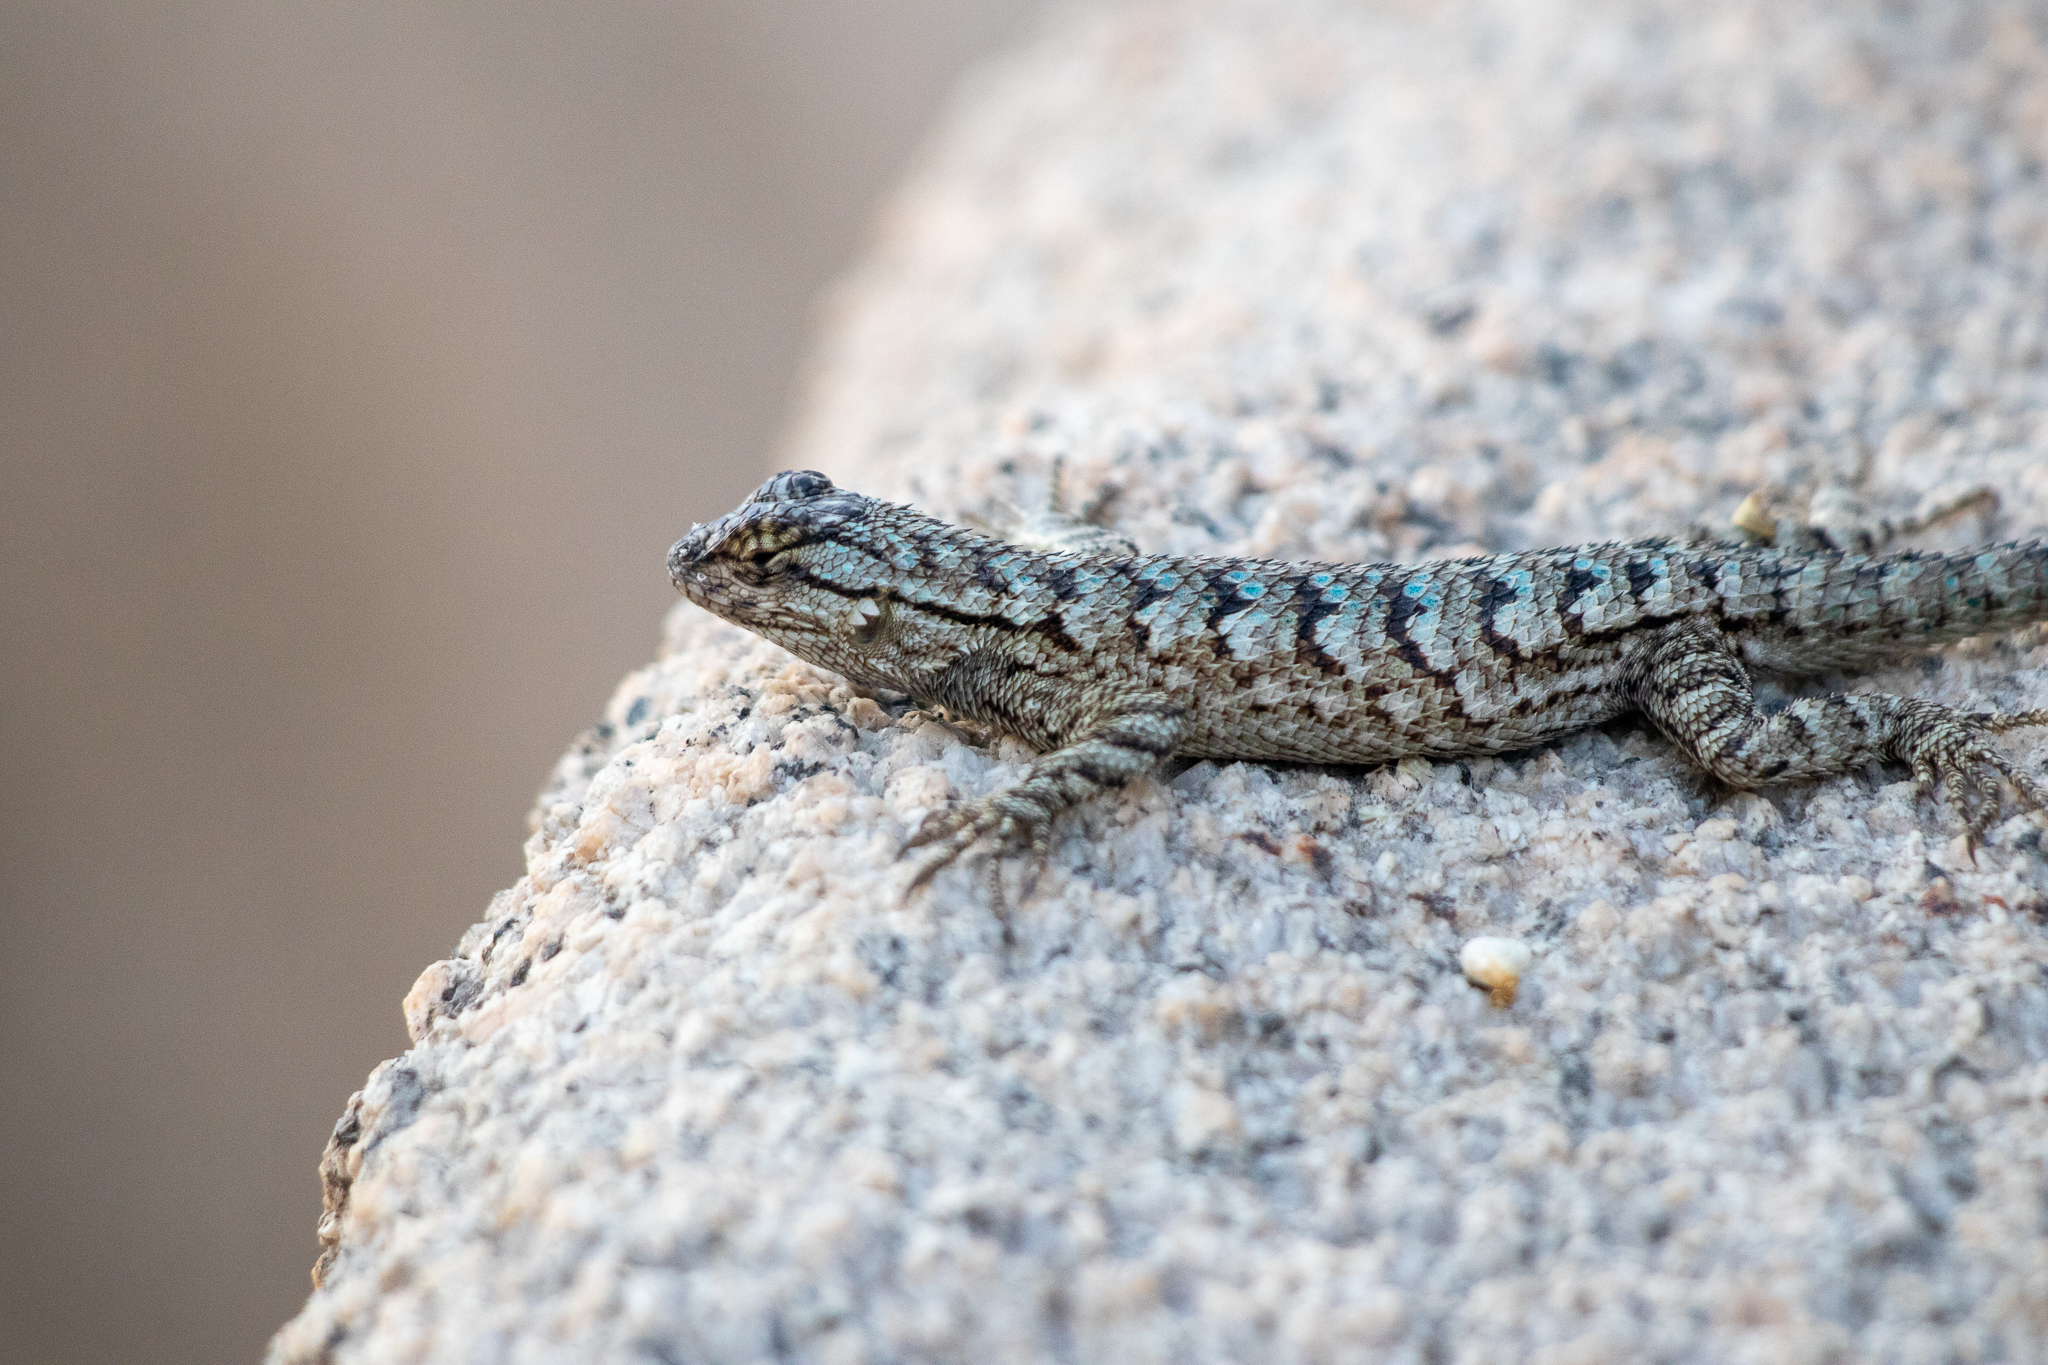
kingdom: Animalia
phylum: Chordata
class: Squamata
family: Phrynosomatidae
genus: Sceloporus
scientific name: Sceloporus occidentalis
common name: Western fence lizard
